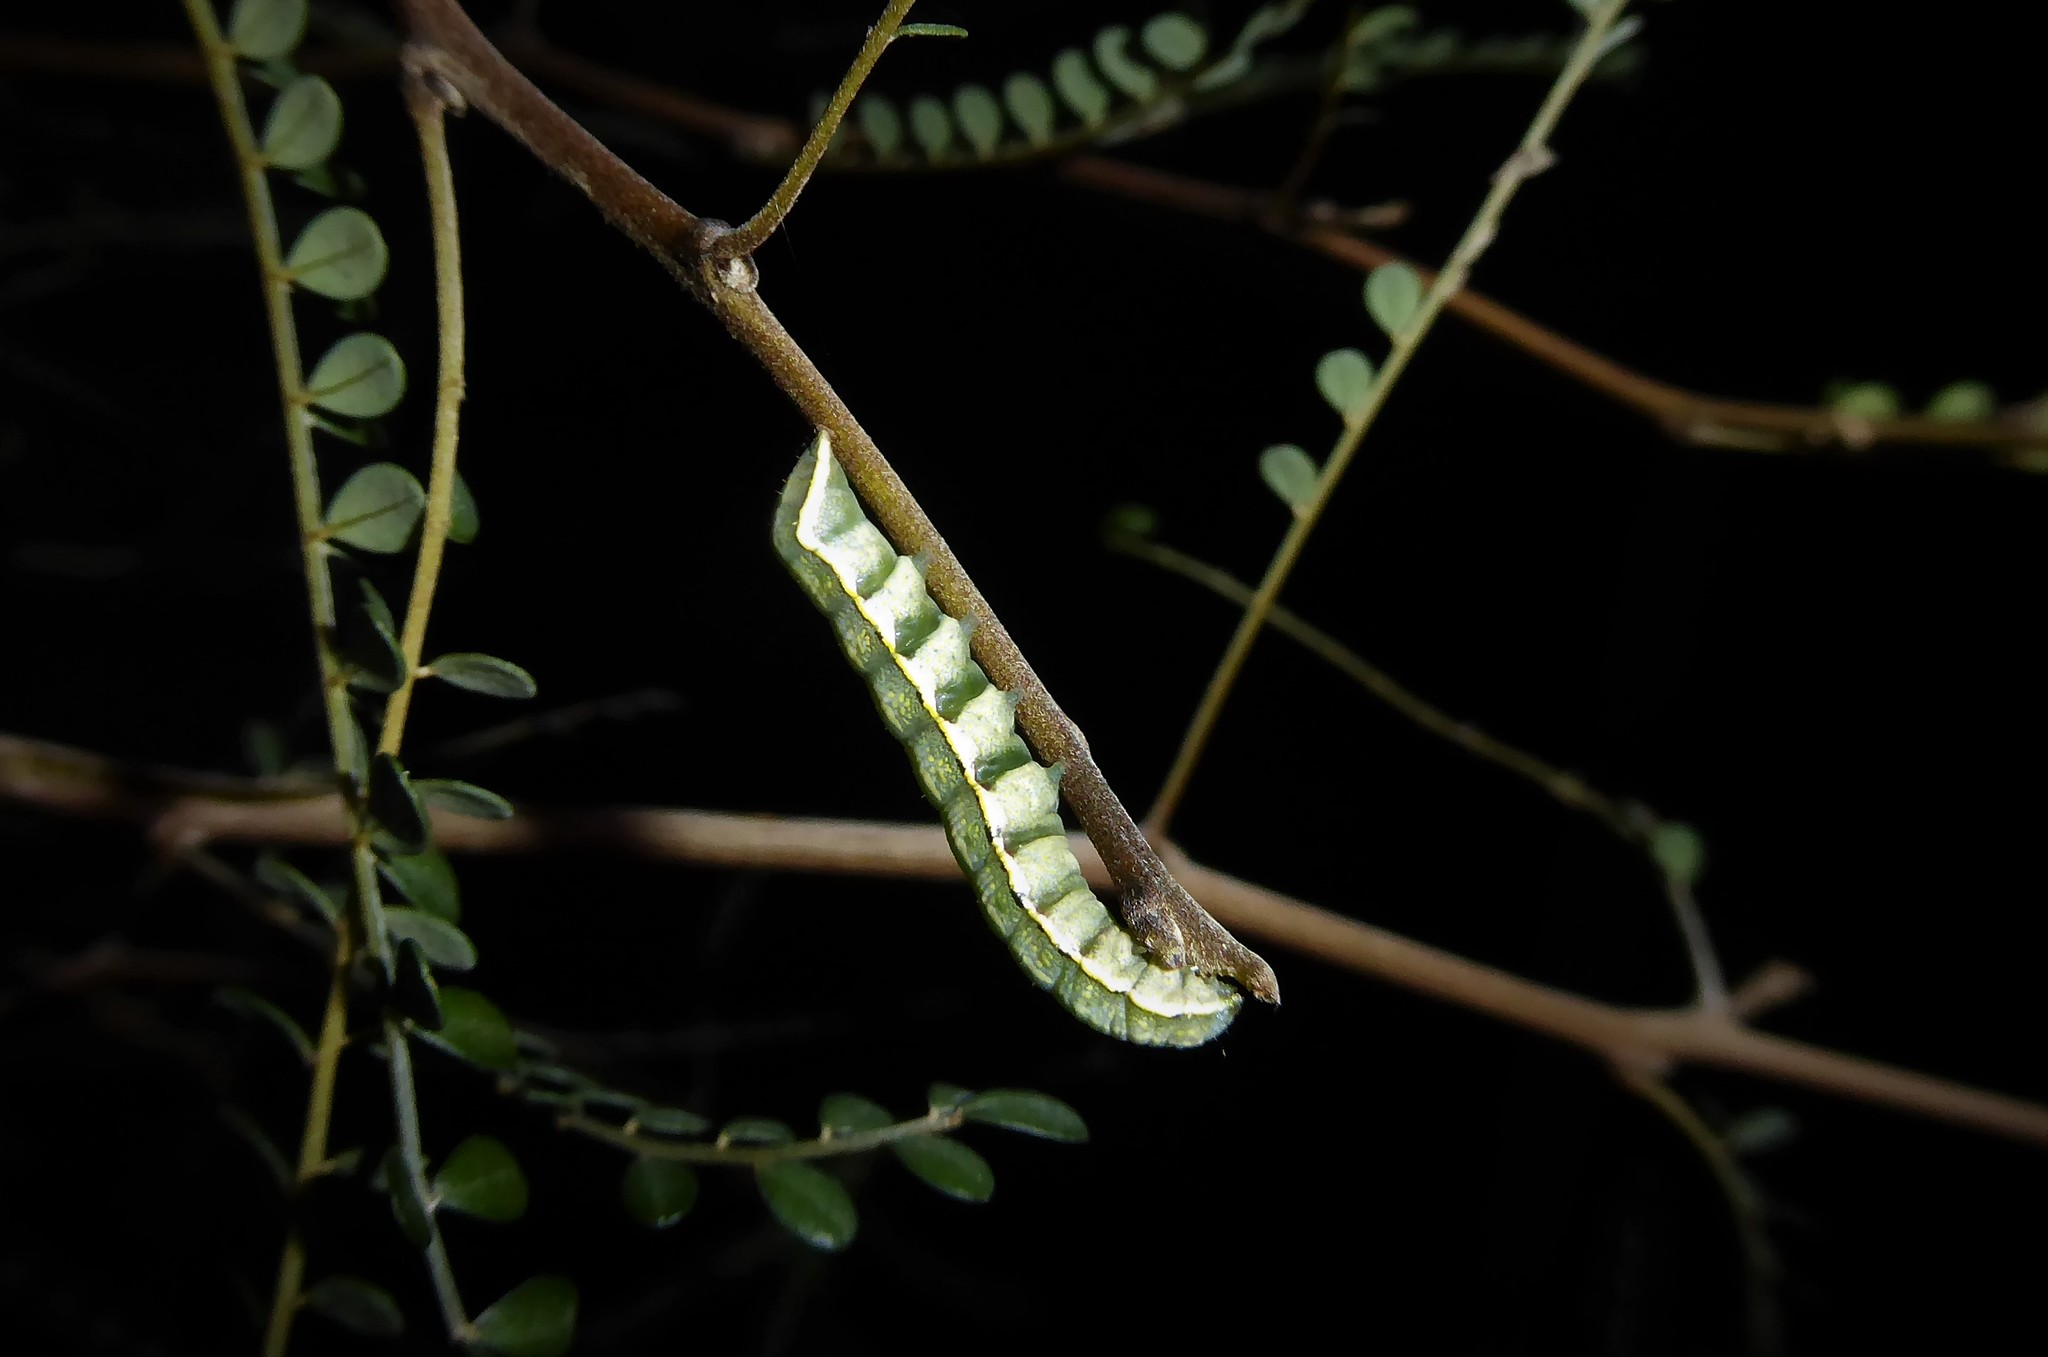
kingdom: Animalia
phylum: Arthropoda
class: Insecta
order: Lepidoptera
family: Noctuidae
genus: Meterana
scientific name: Meterana decorata
